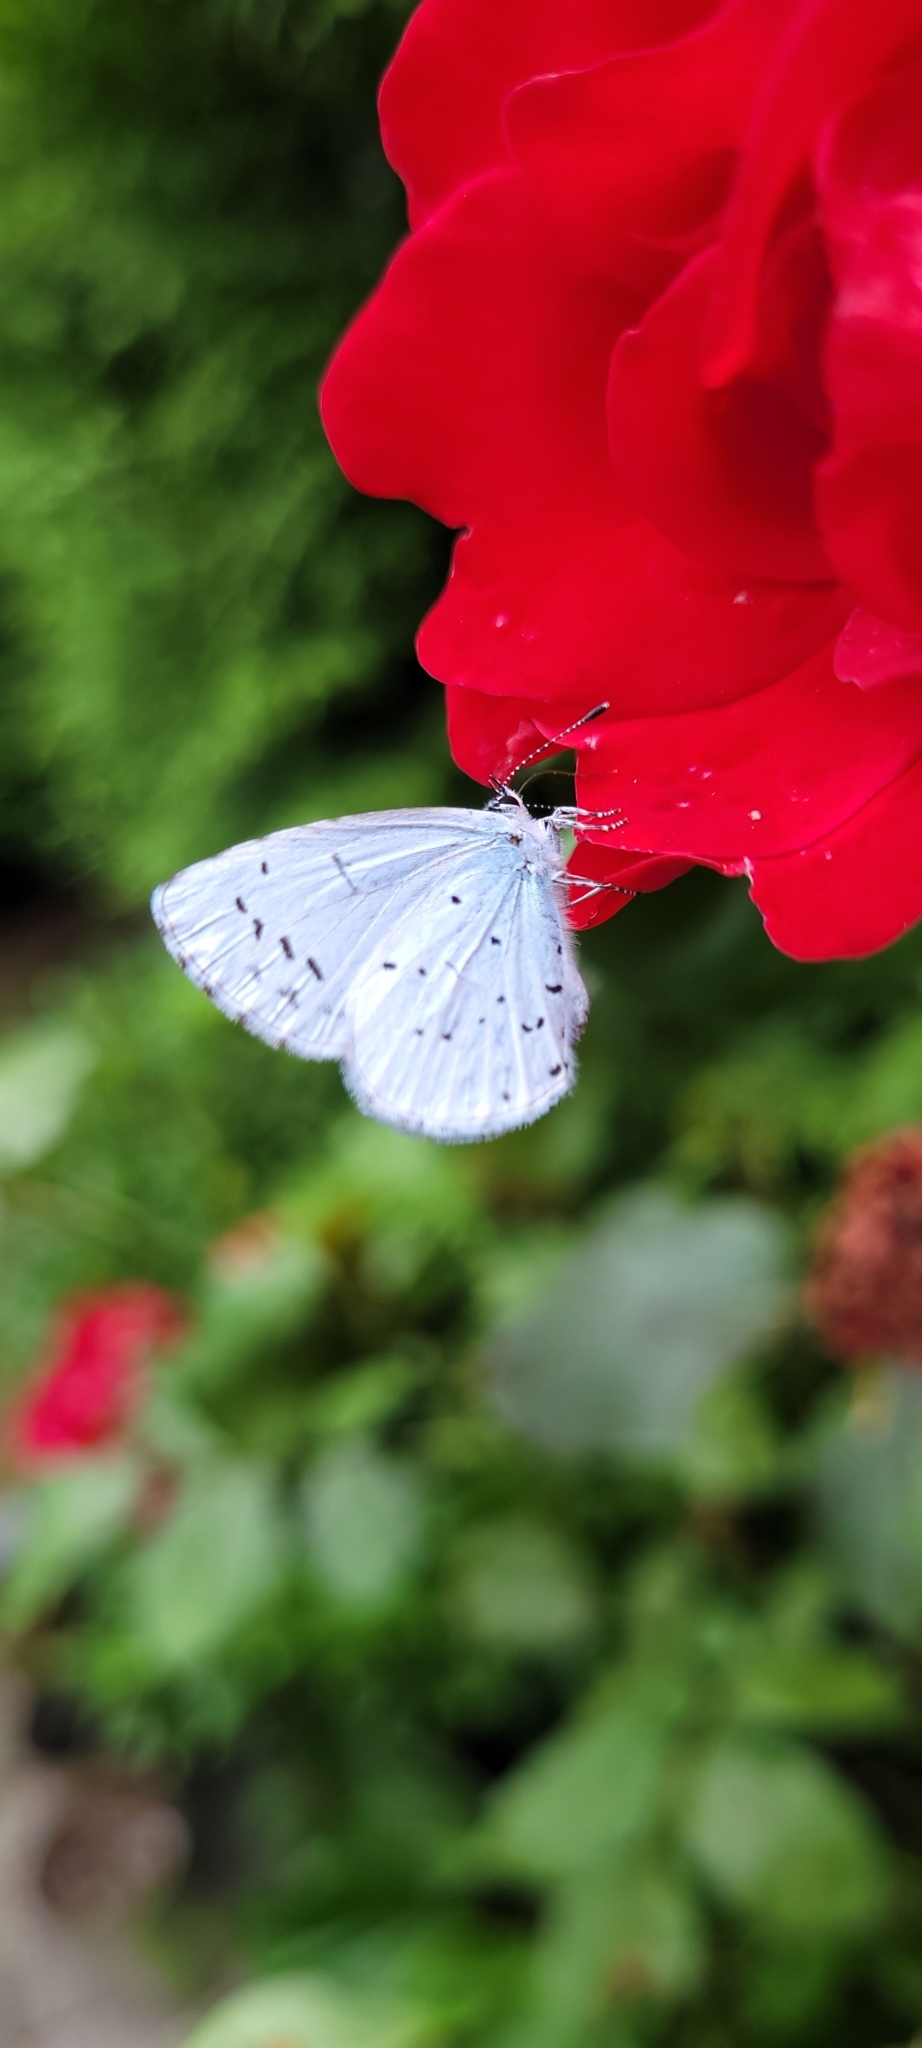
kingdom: Animalia
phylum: Arthropoda
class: Insecta
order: Lepidoptera
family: Lycaenidae
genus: Celastrina
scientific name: Celastrina argiolus
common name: Holly blue
